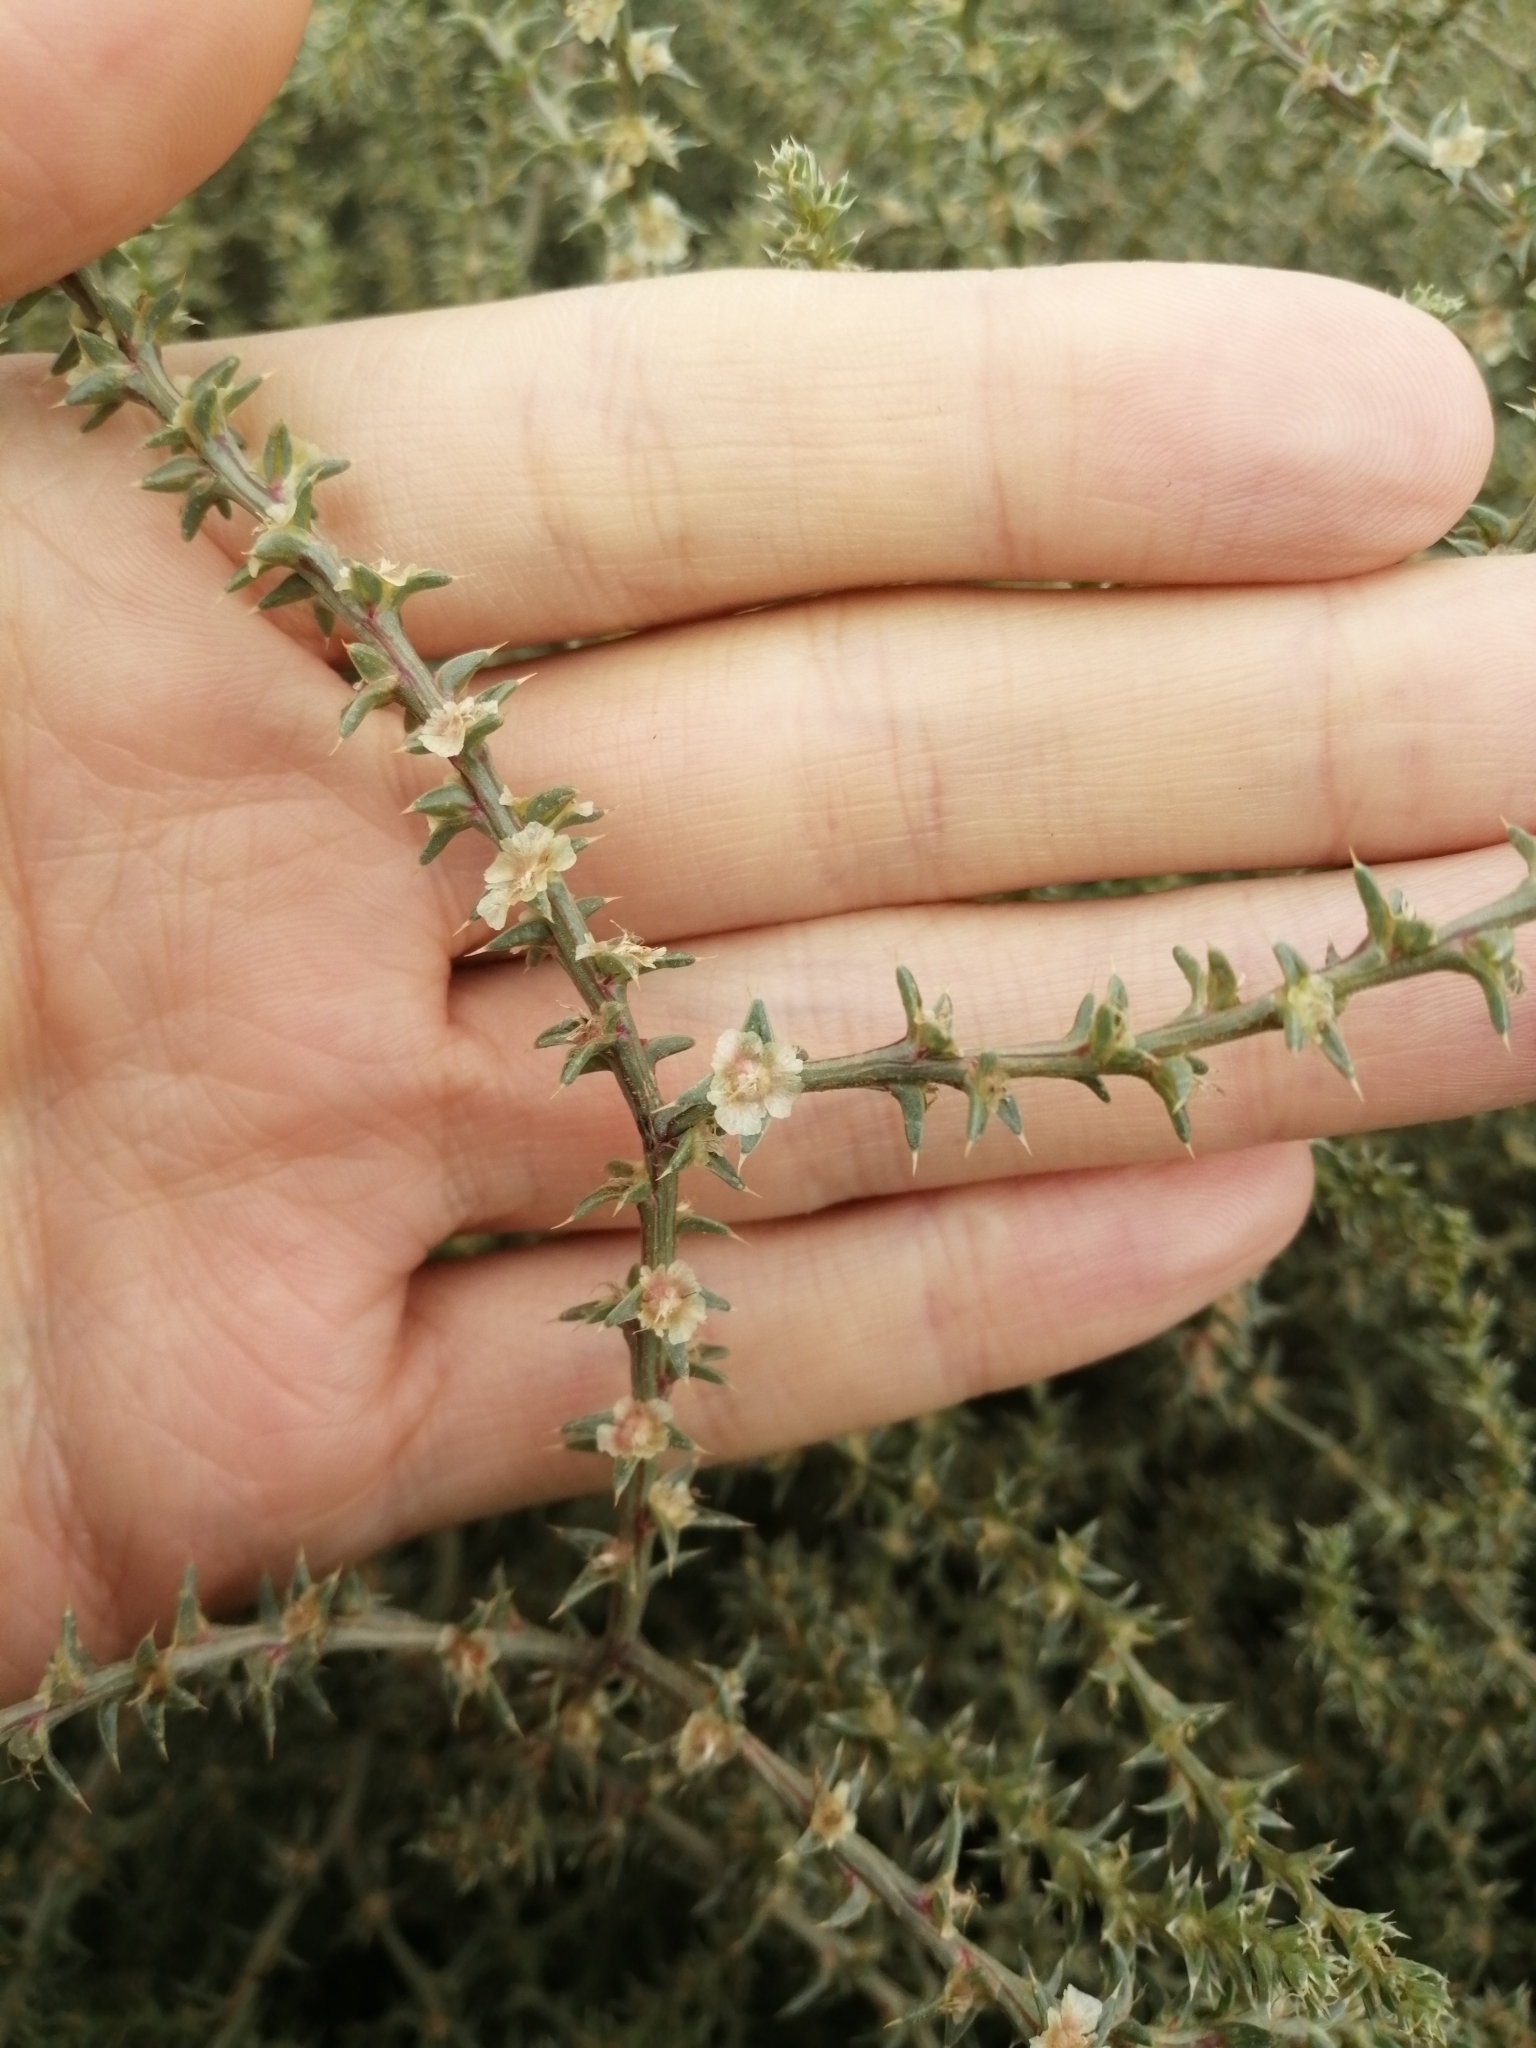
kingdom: Plantae
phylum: Tracheophyta
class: Magnoliopsida
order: Caryophyllales
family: Amaranthaceae
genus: Salsola
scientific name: Salsola tragus
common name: Prickly russian thistle
